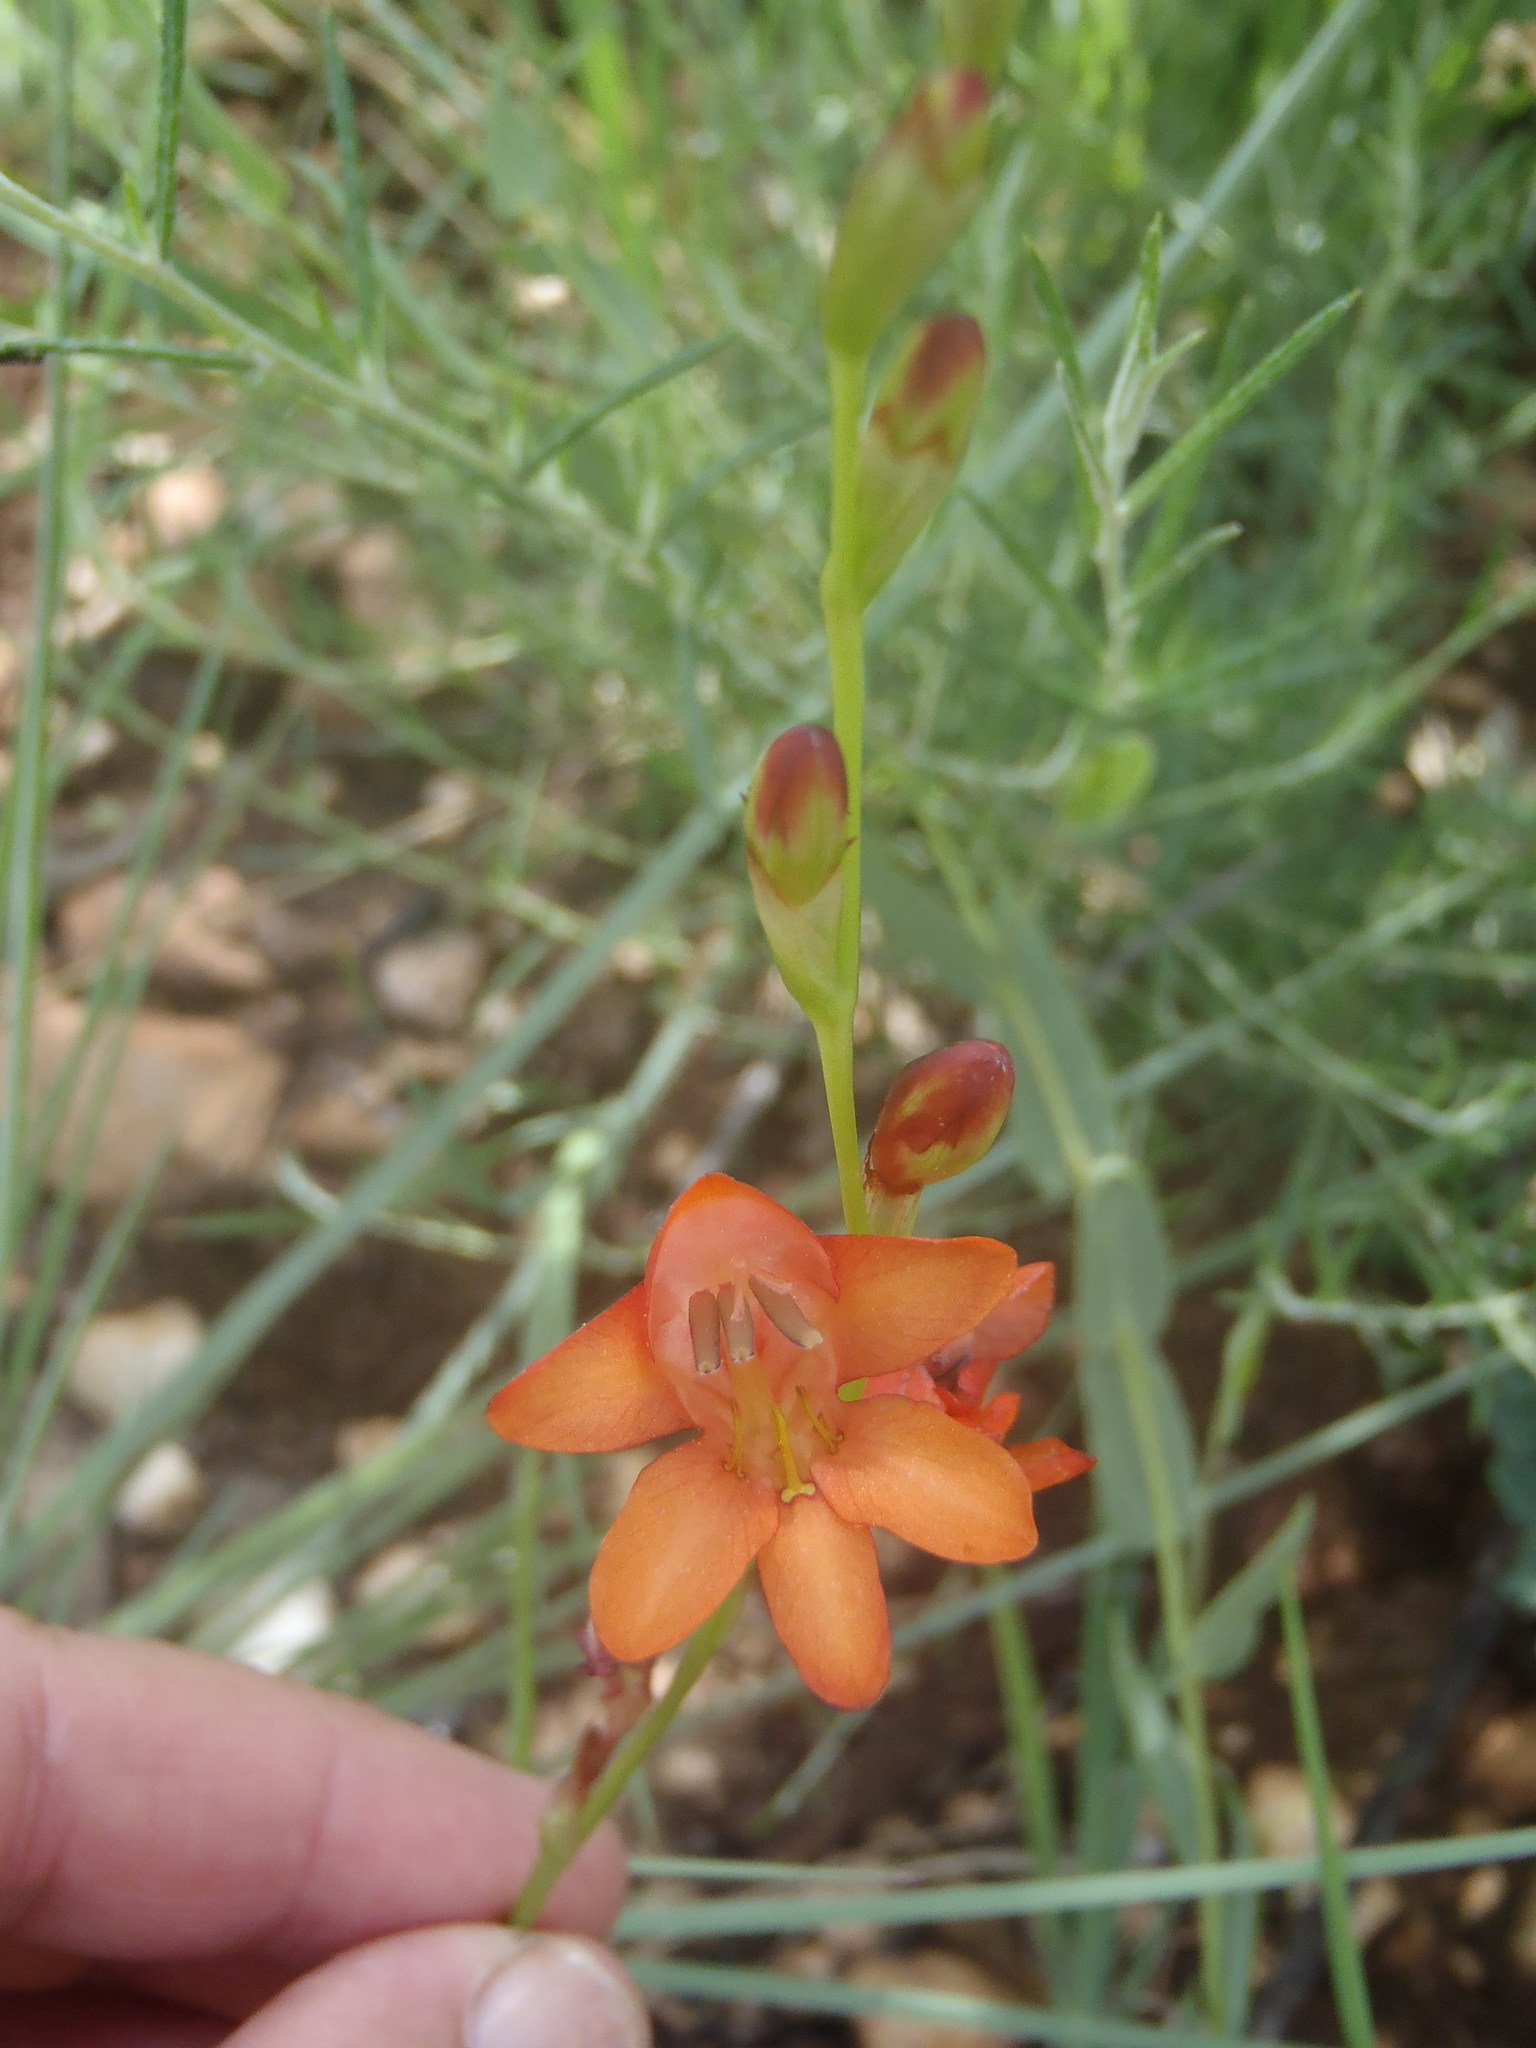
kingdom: Plantae
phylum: Tracheophyta
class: Liliopsida
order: Asparagales
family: Iridaceae
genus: Tritonia
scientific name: Tritonia nelsonii
